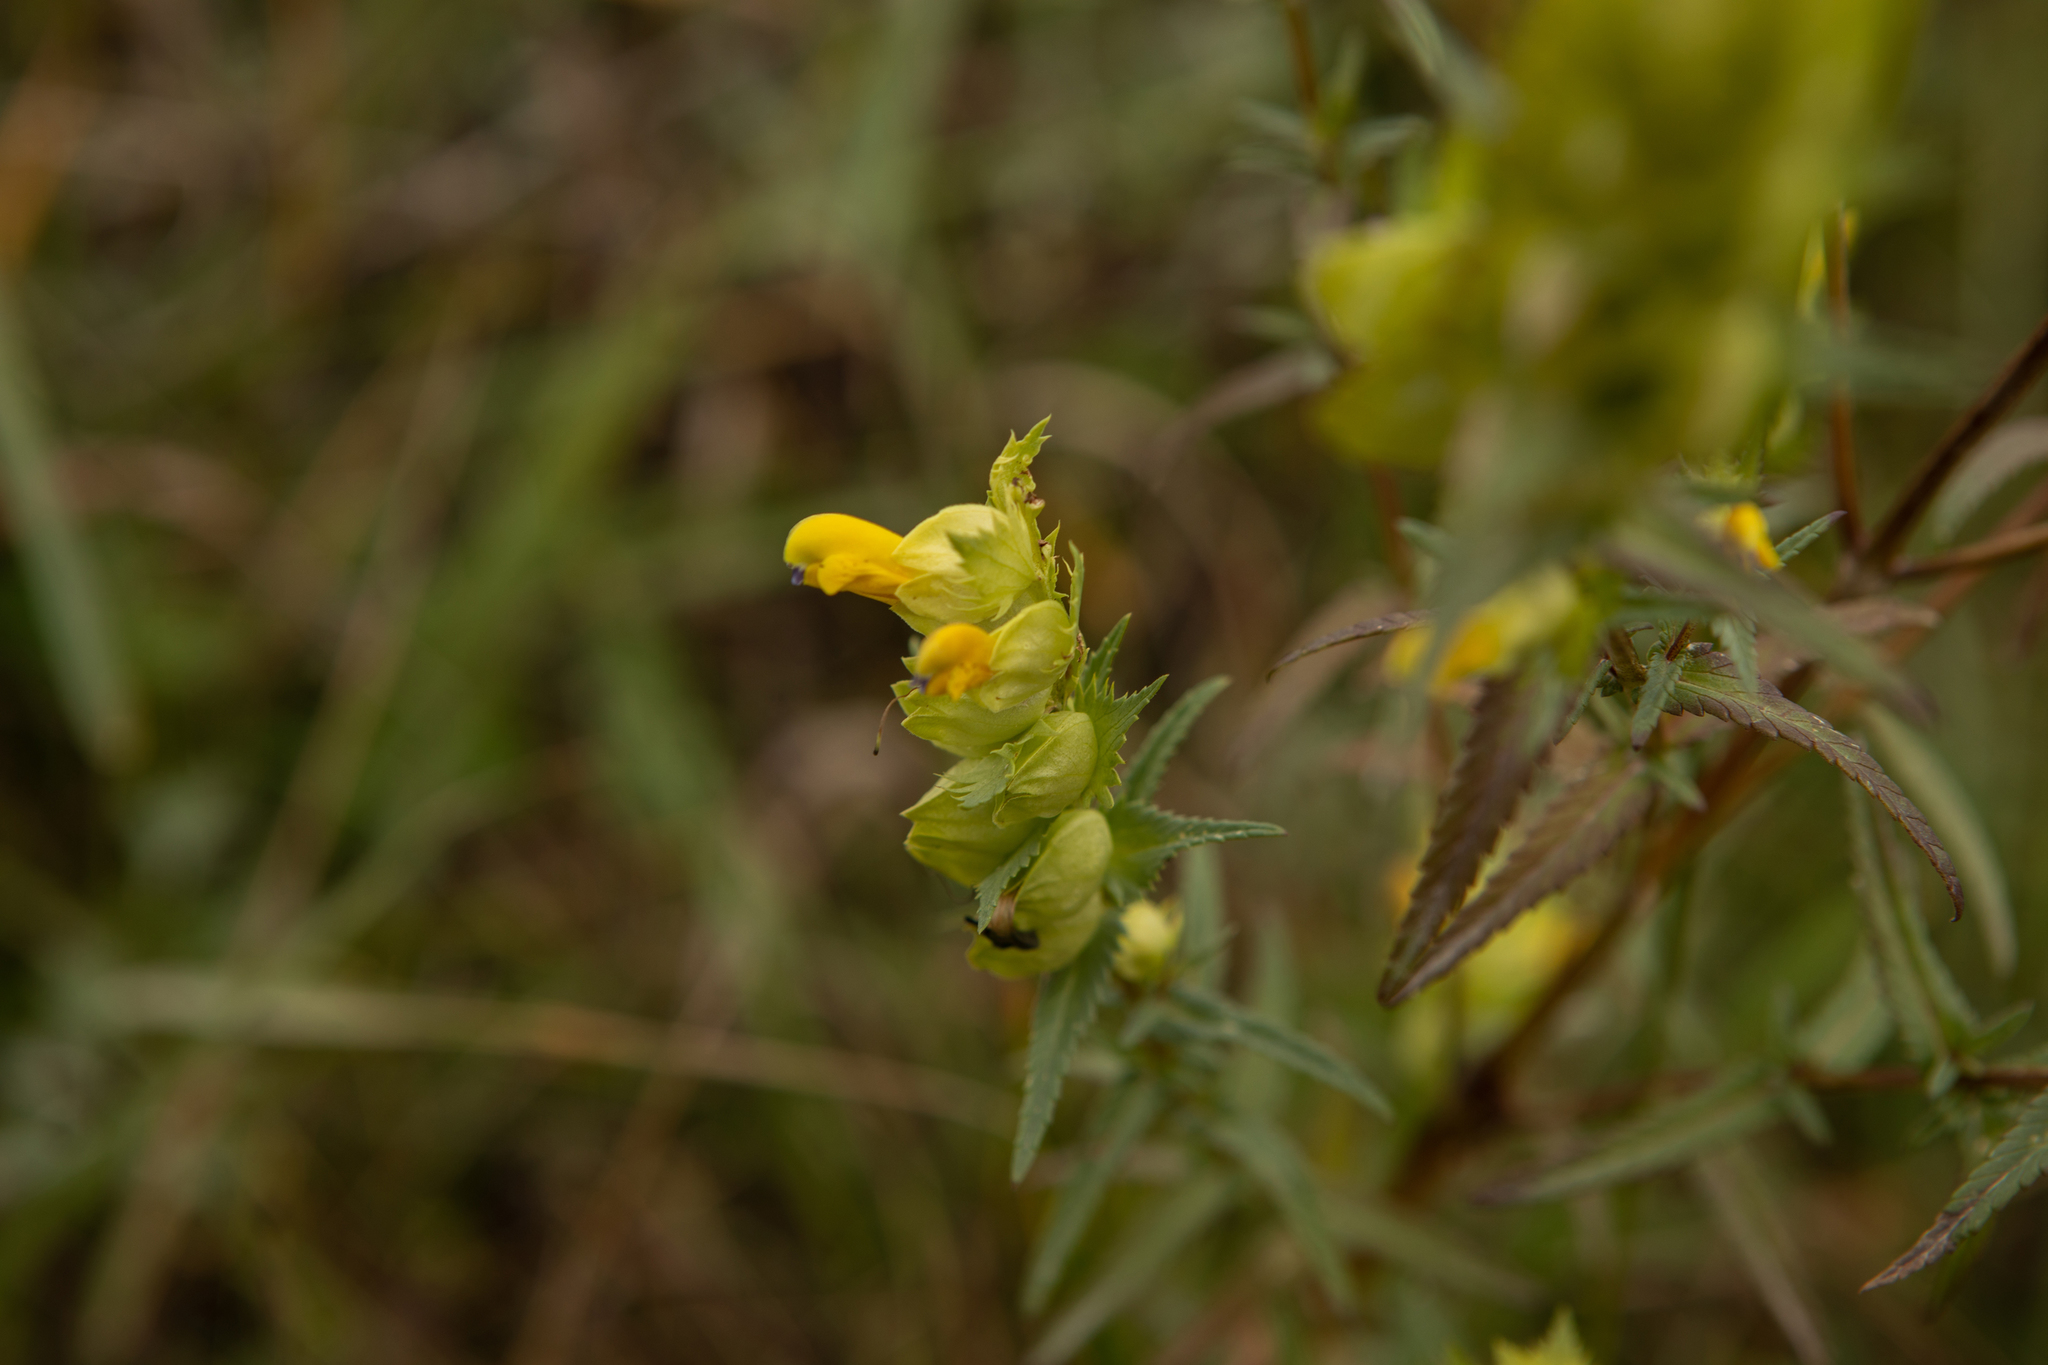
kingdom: Plantae
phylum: Tracheophyta
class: Magnoliopsida
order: Lamiales
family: Orobanchaceae
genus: Rhinanthus
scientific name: Rhinanthus serotinus
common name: Late-flowering yellow rattle
